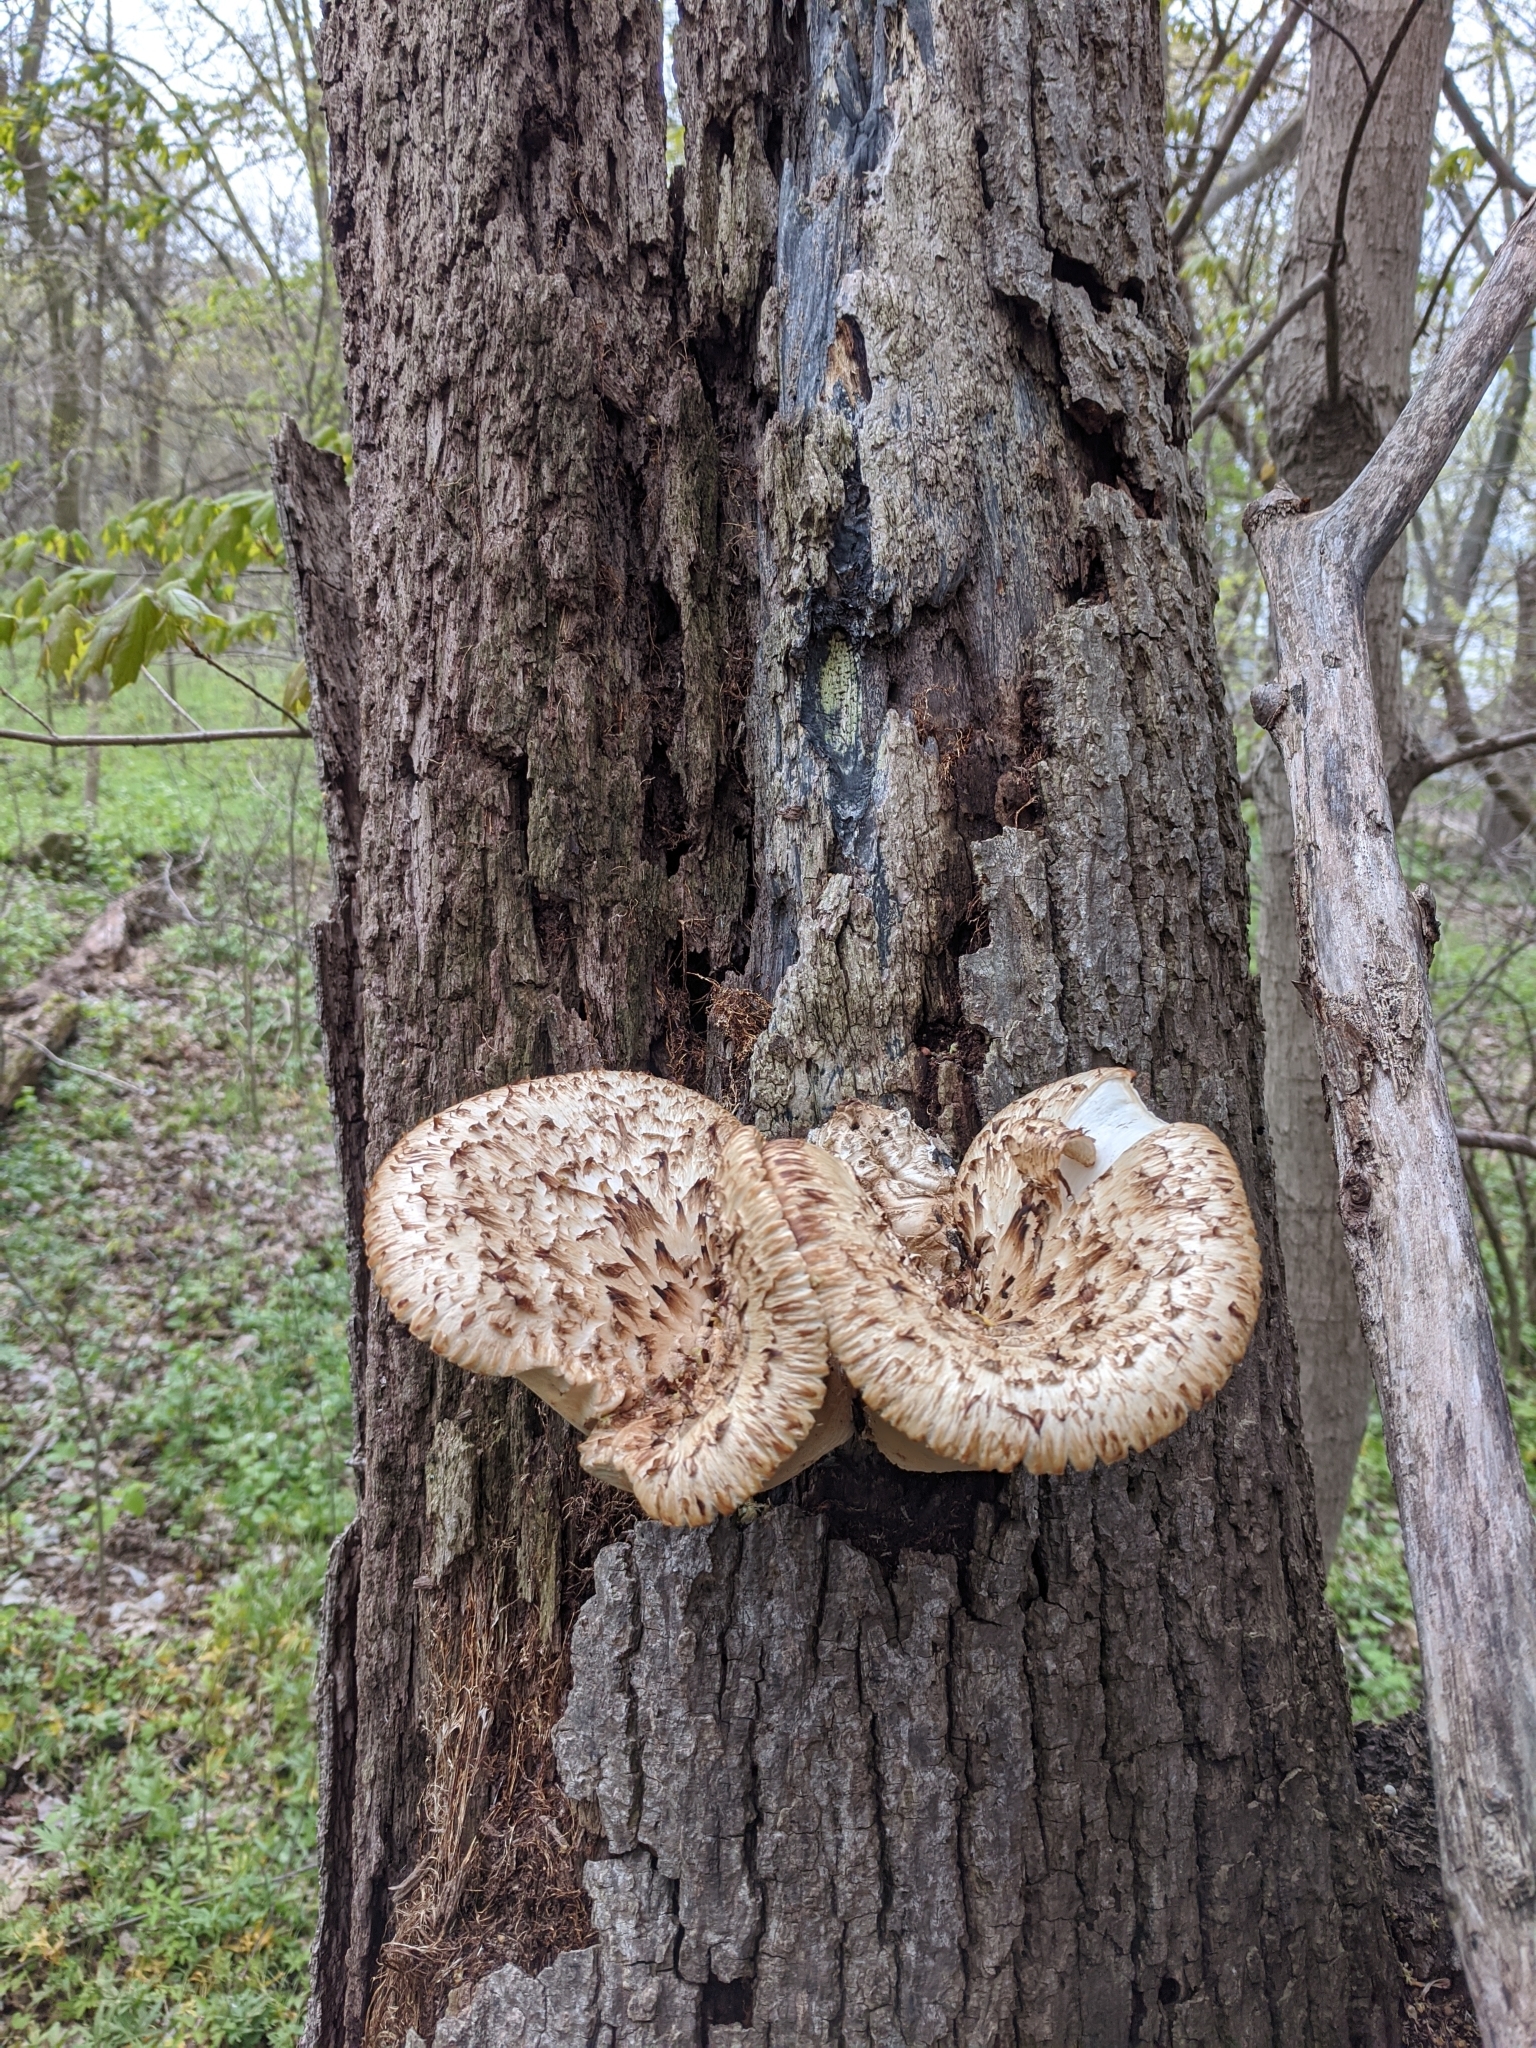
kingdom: Fungi
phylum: Basidiomycota
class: Agaricomycetes
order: Polyporales
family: Polyporaceae
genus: Cerioporus
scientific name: Cerioporus squamosus
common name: Dryad's saddle
